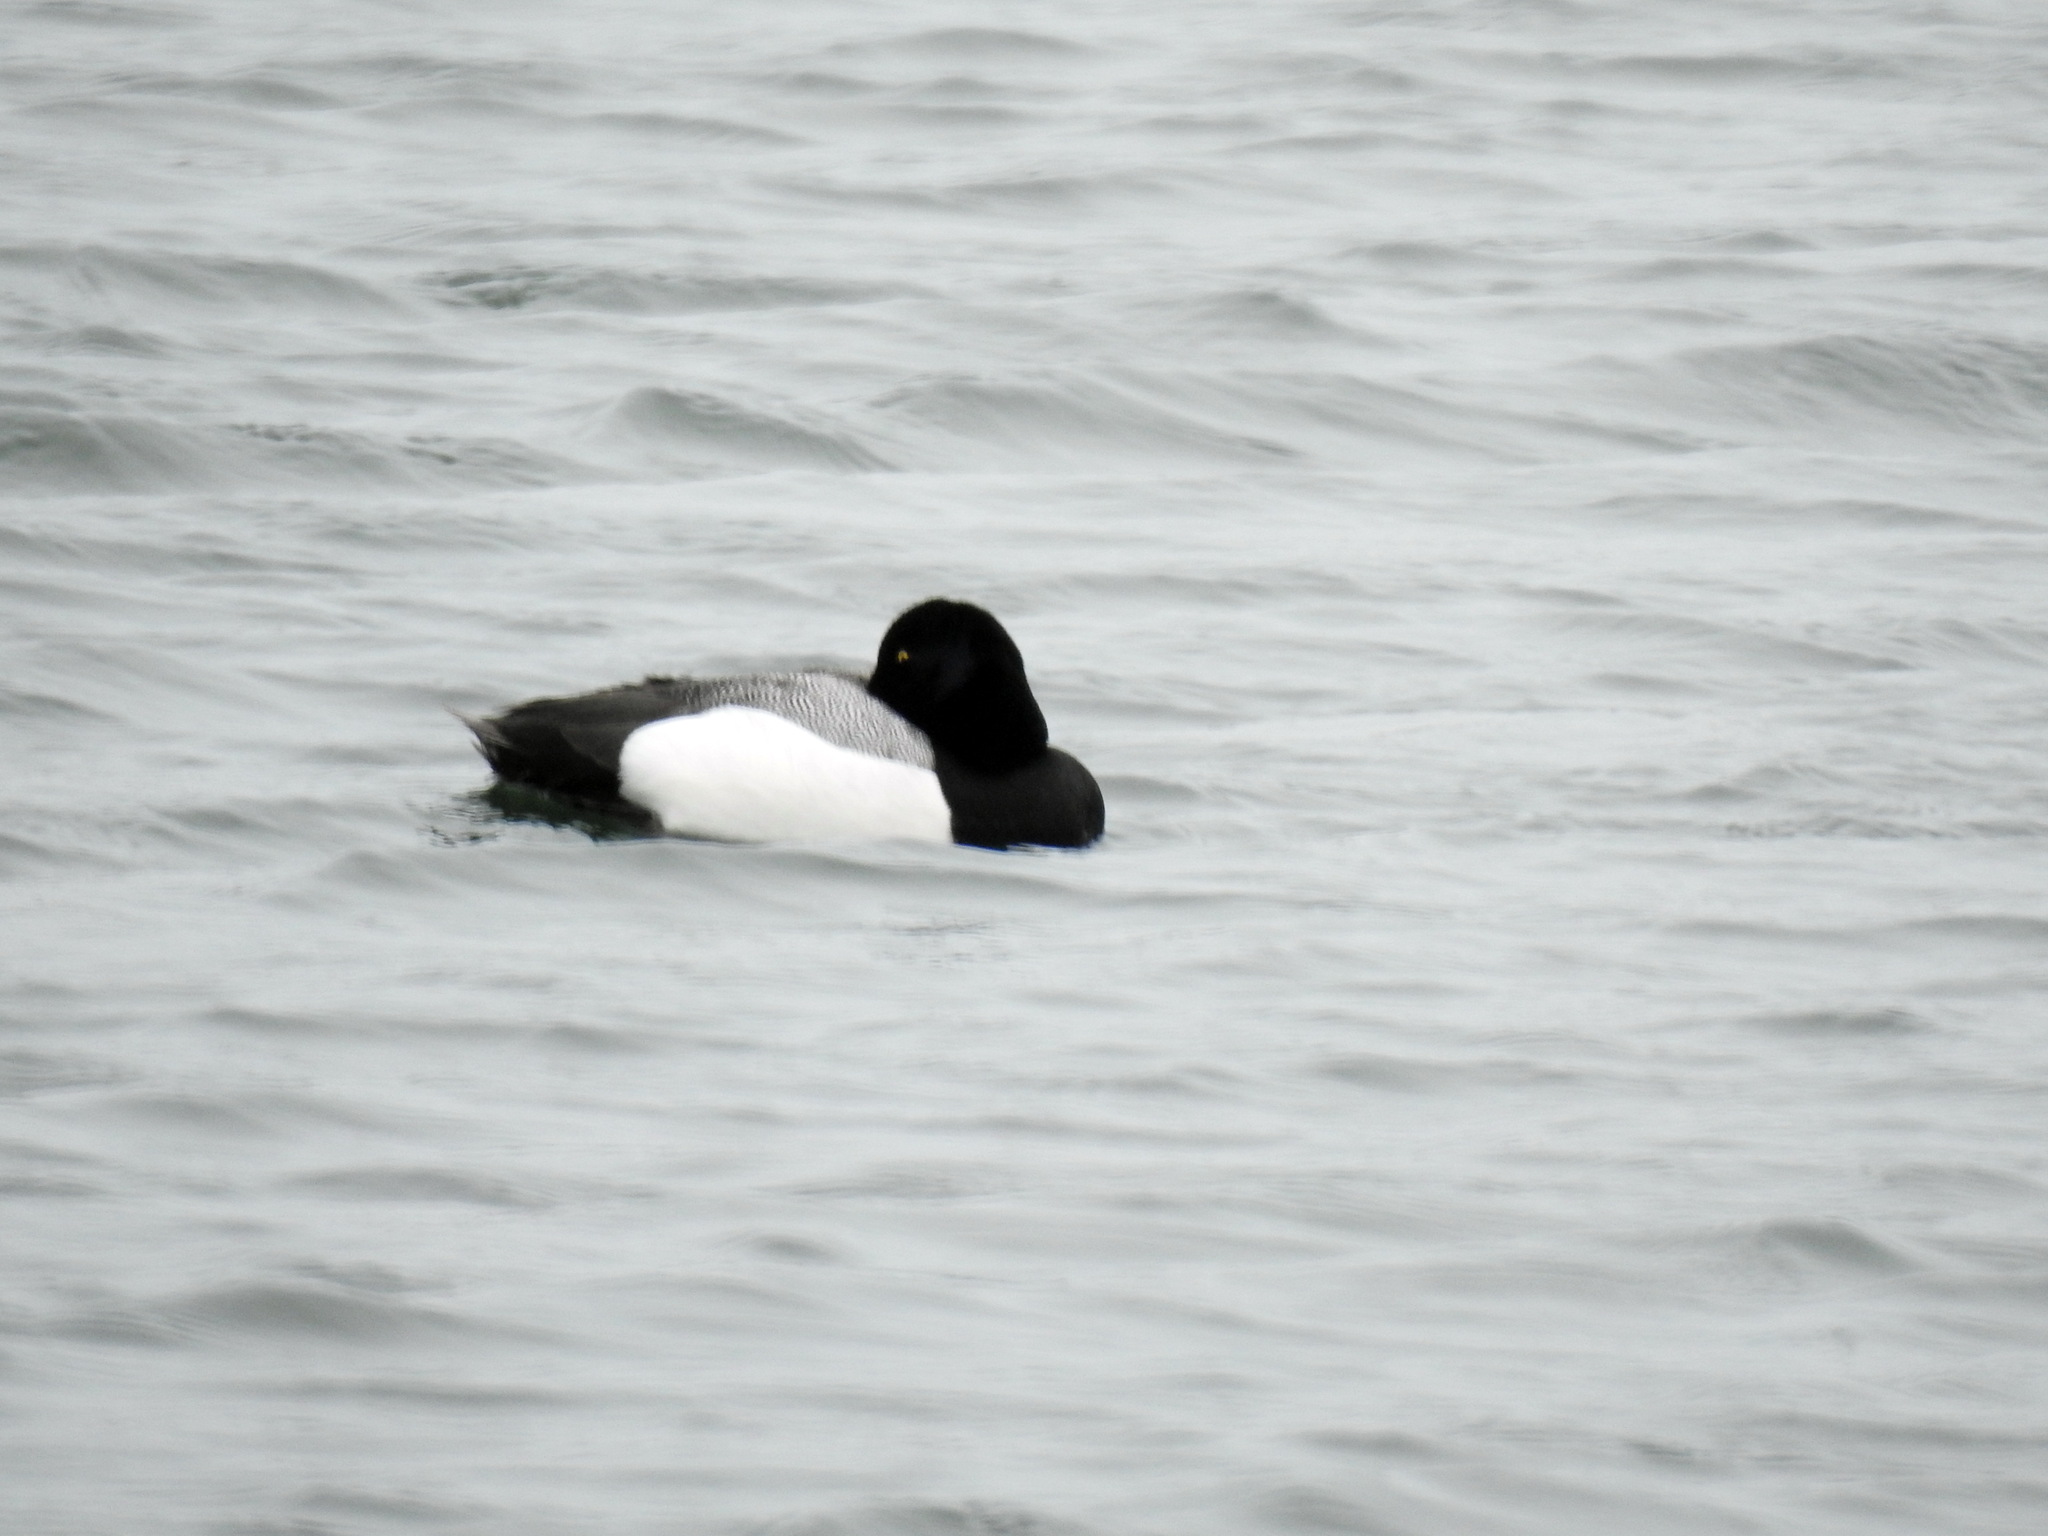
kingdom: Animalia
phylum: Chordata
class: Aves
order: Anseriformes
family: Anatidae
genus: Aythya
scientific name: Aythya marila
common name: Greater scaup
